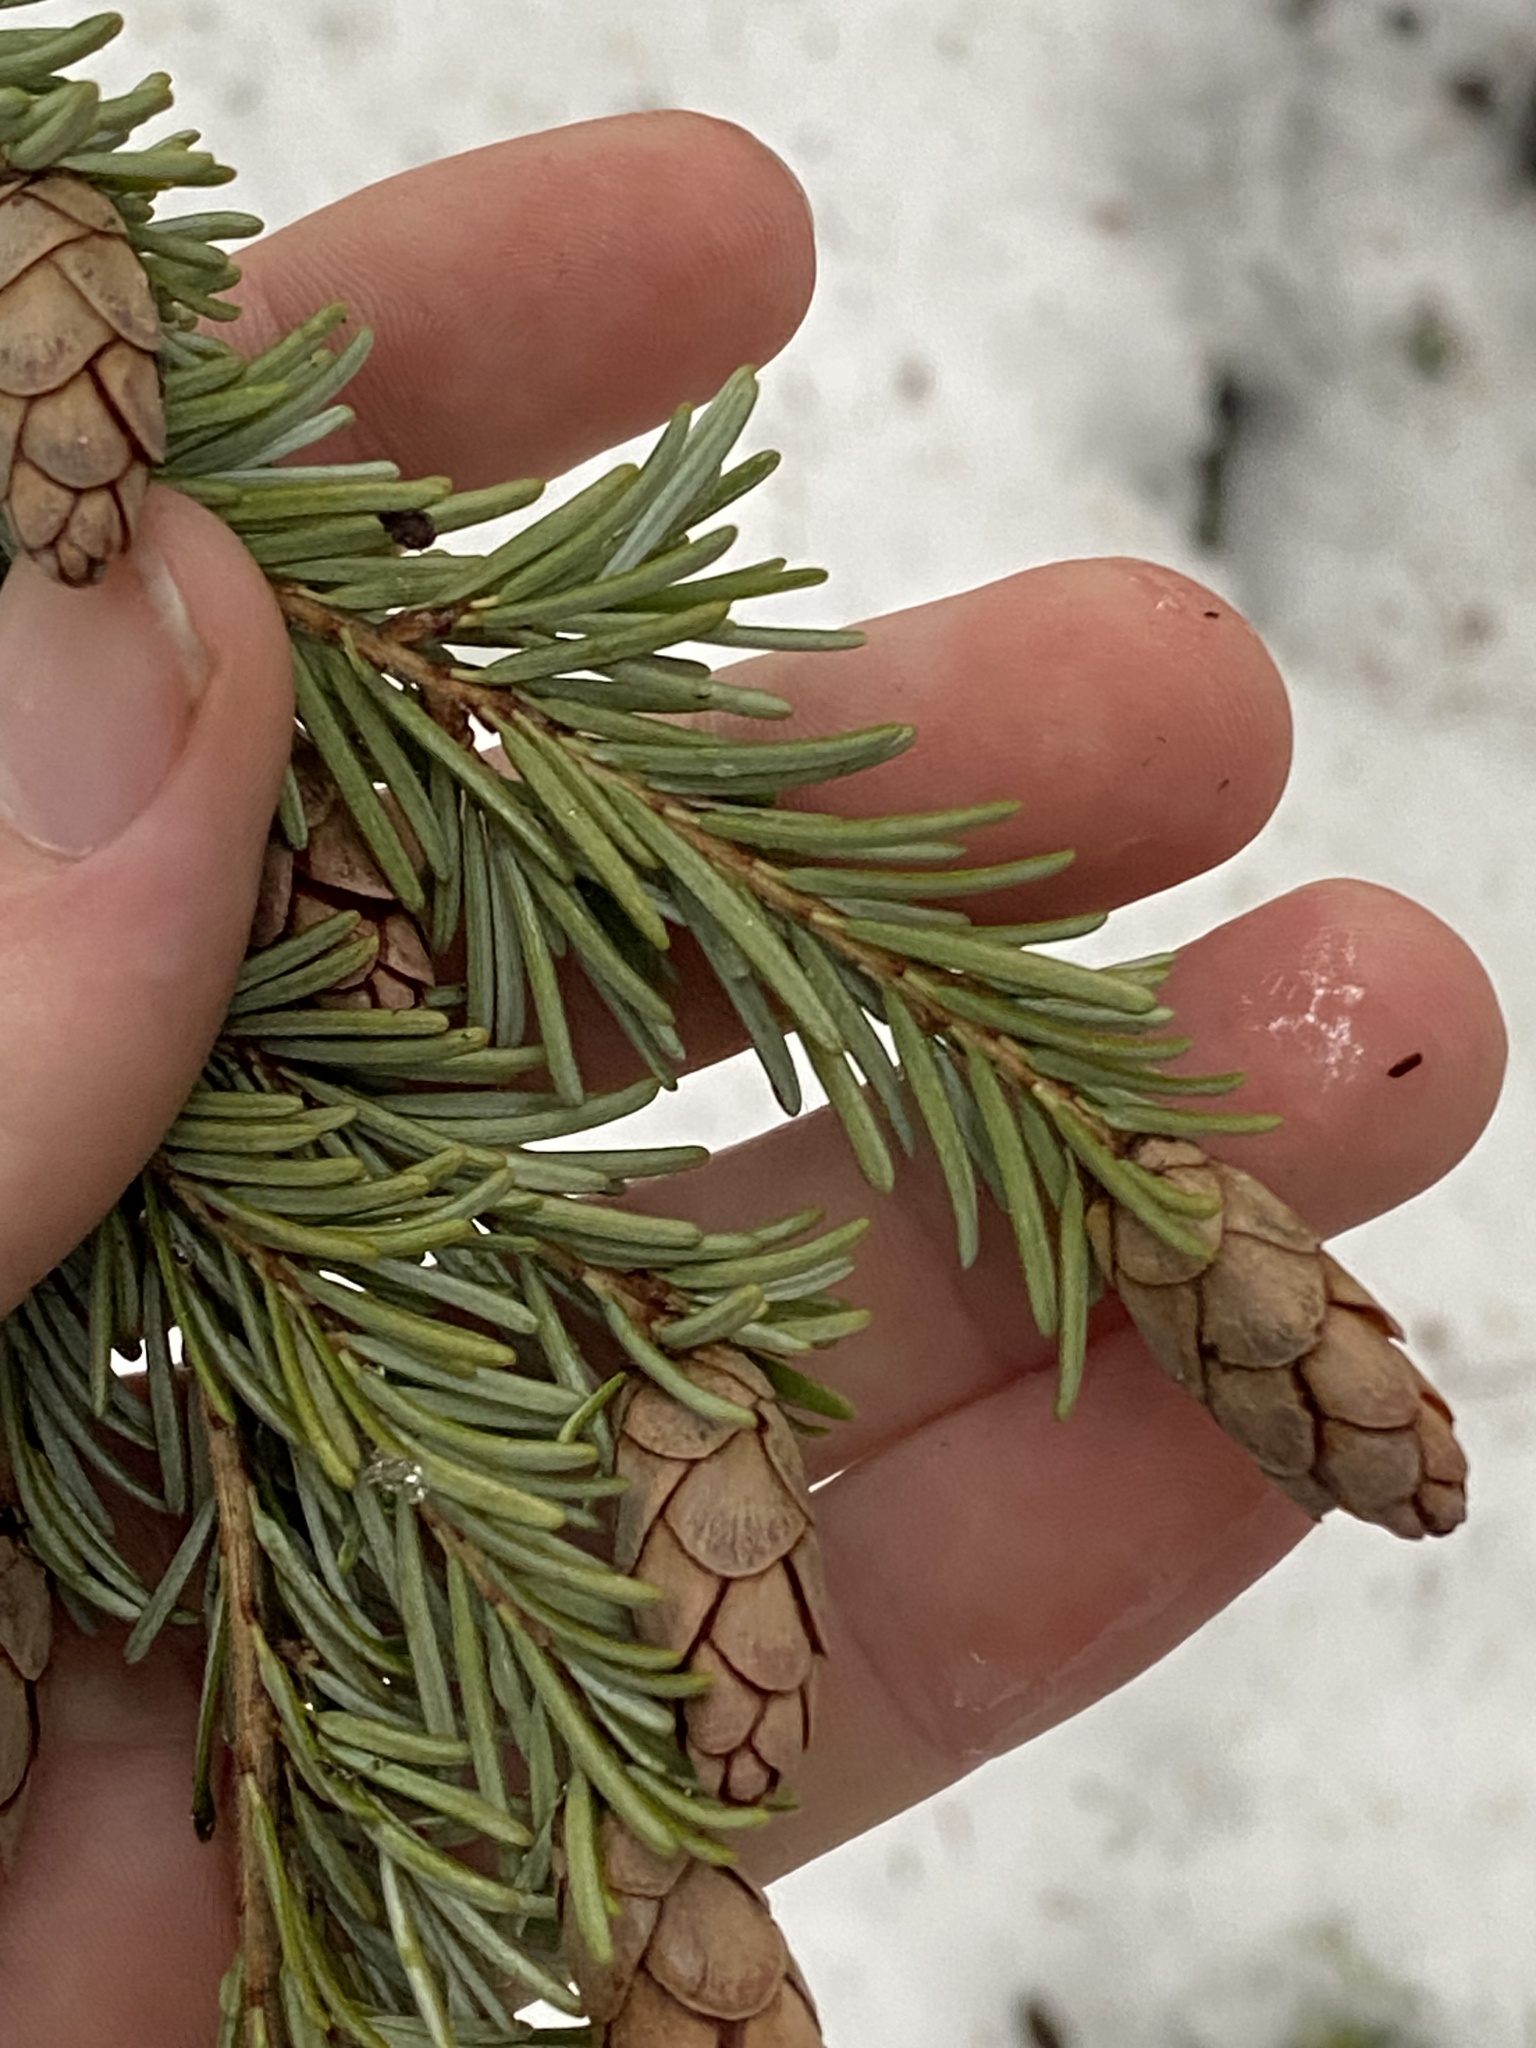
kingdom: Plantae
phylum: Tracheophyta
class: Pinopsida
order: Pinales
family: Pinaceae
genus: Tsuga
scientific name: Tsuga heterophylla
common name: Western hemlock
